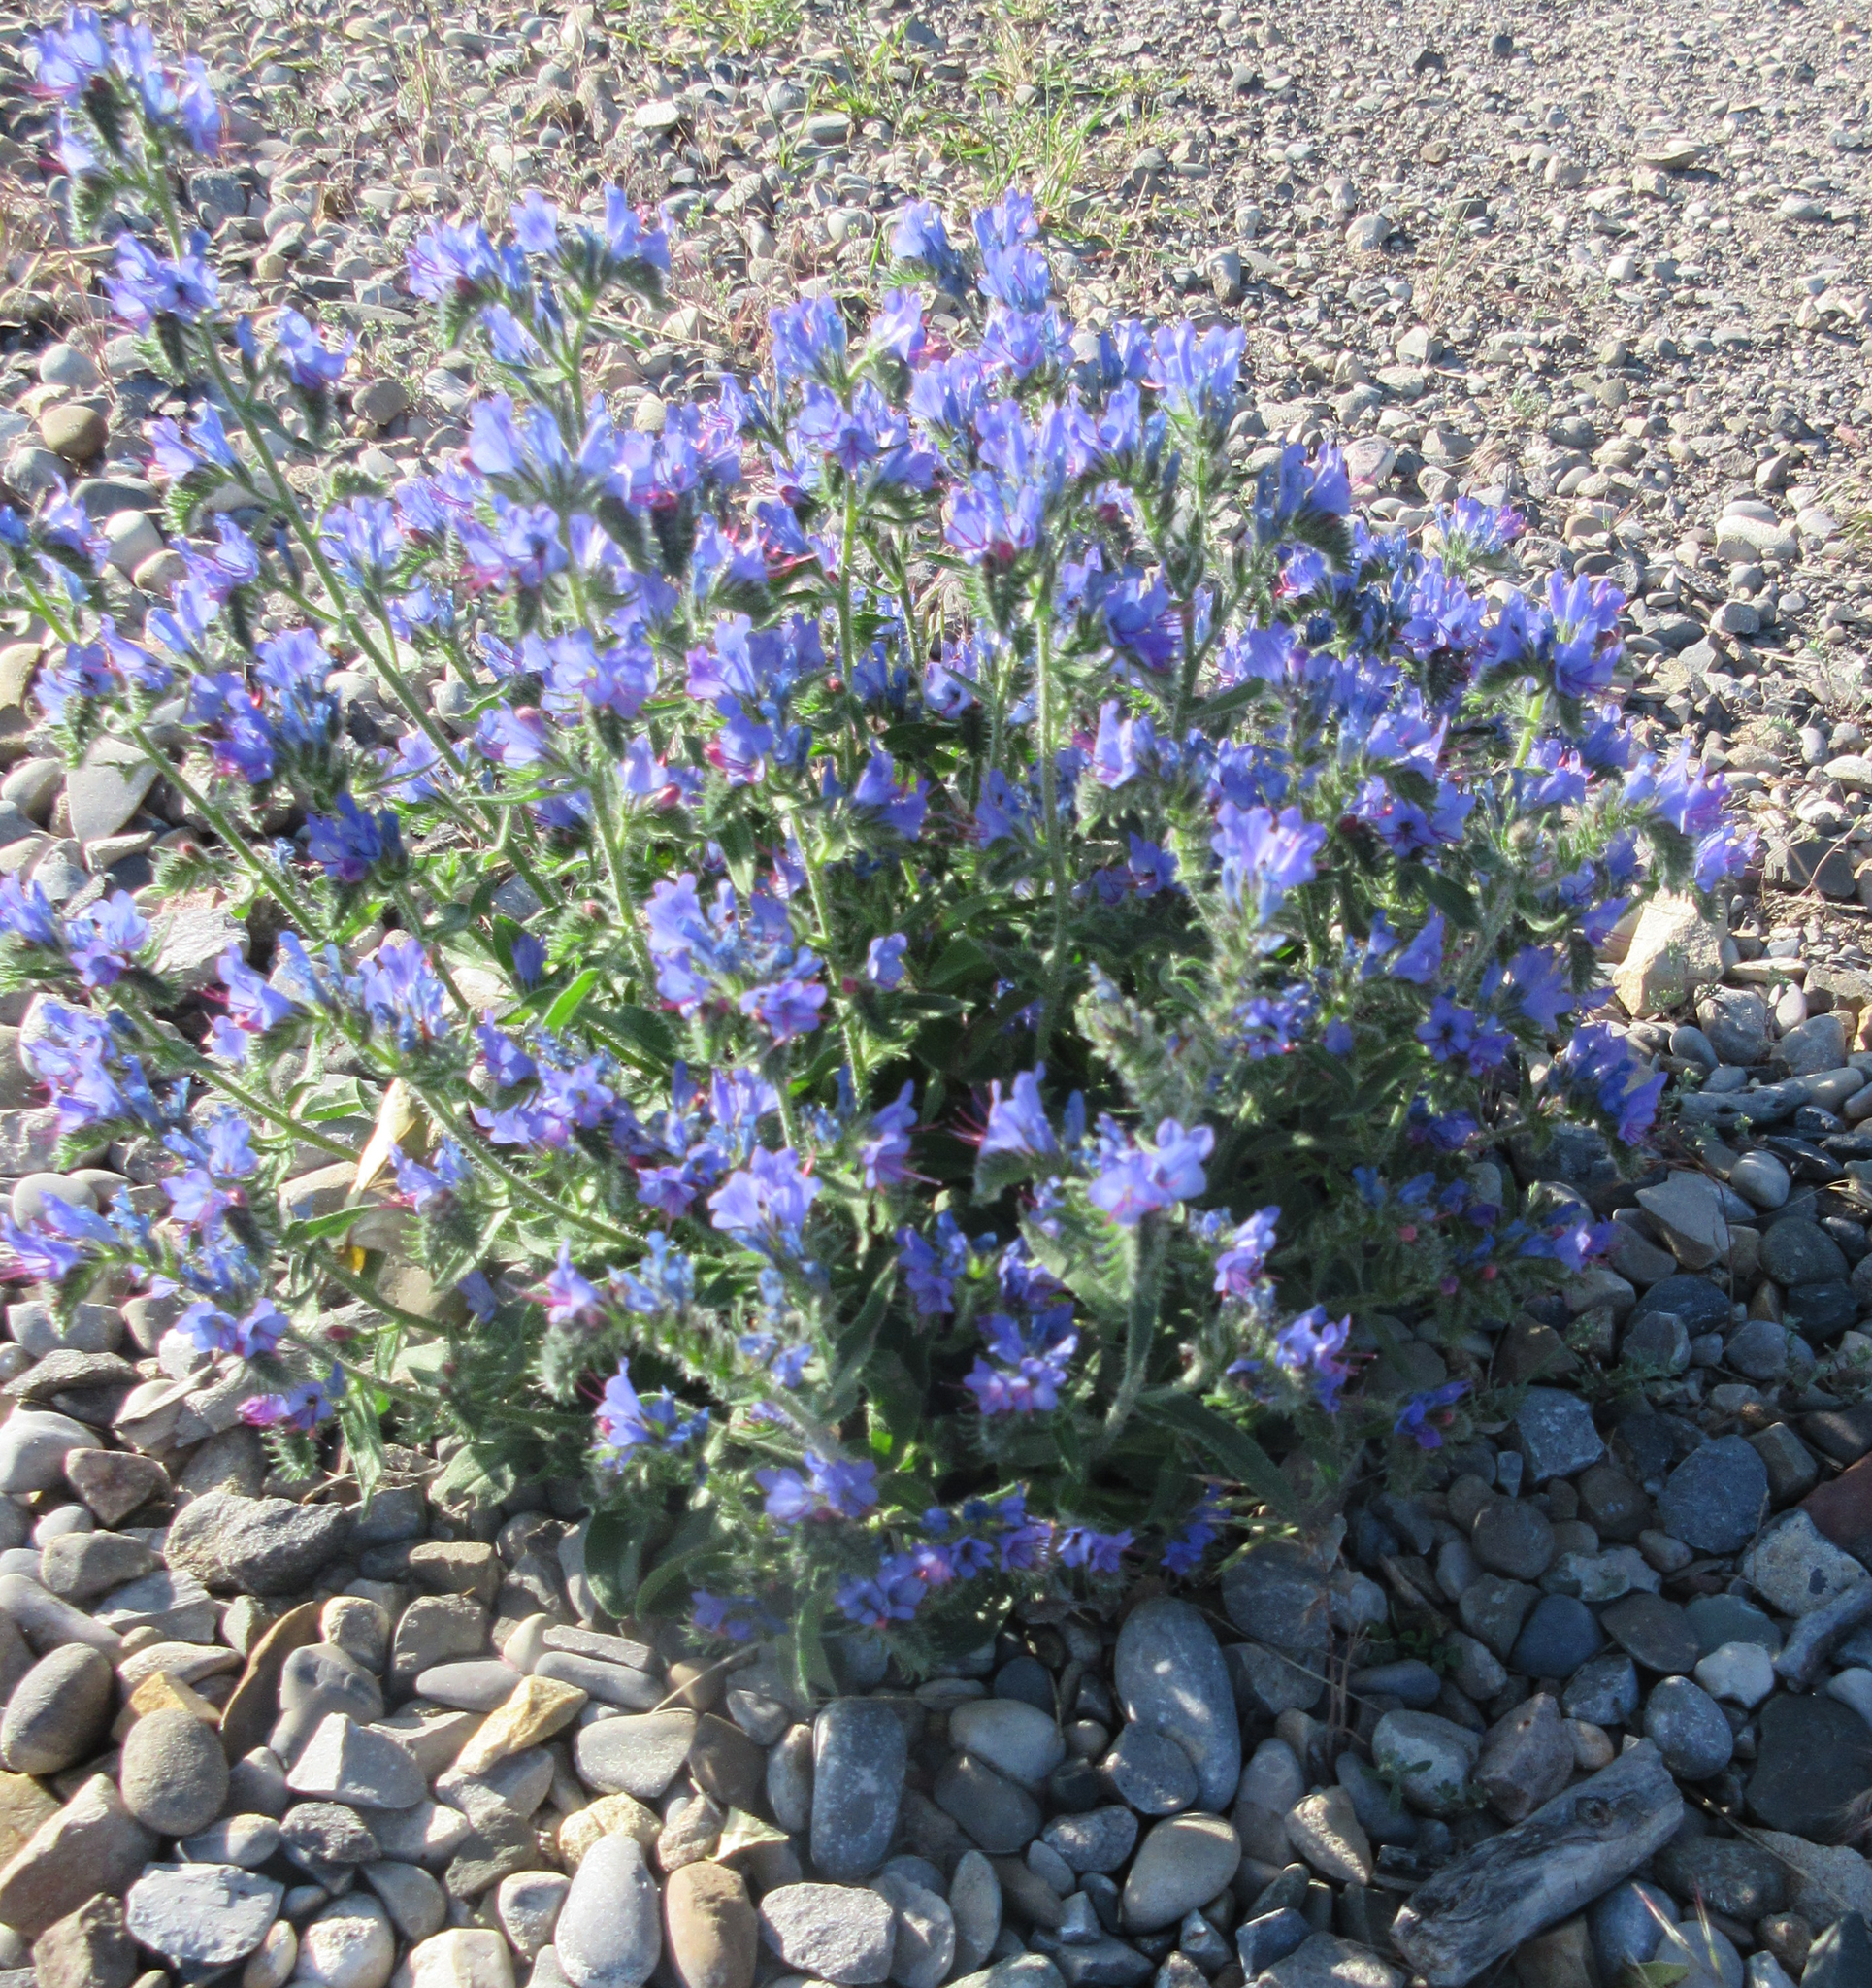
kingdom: Plantae
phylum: Tracheophyta
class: Magnoliopsida
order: Boraginales
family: Boraginaceae
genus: Echium
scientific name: Echium vulgare
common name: Common viper's bugloss
